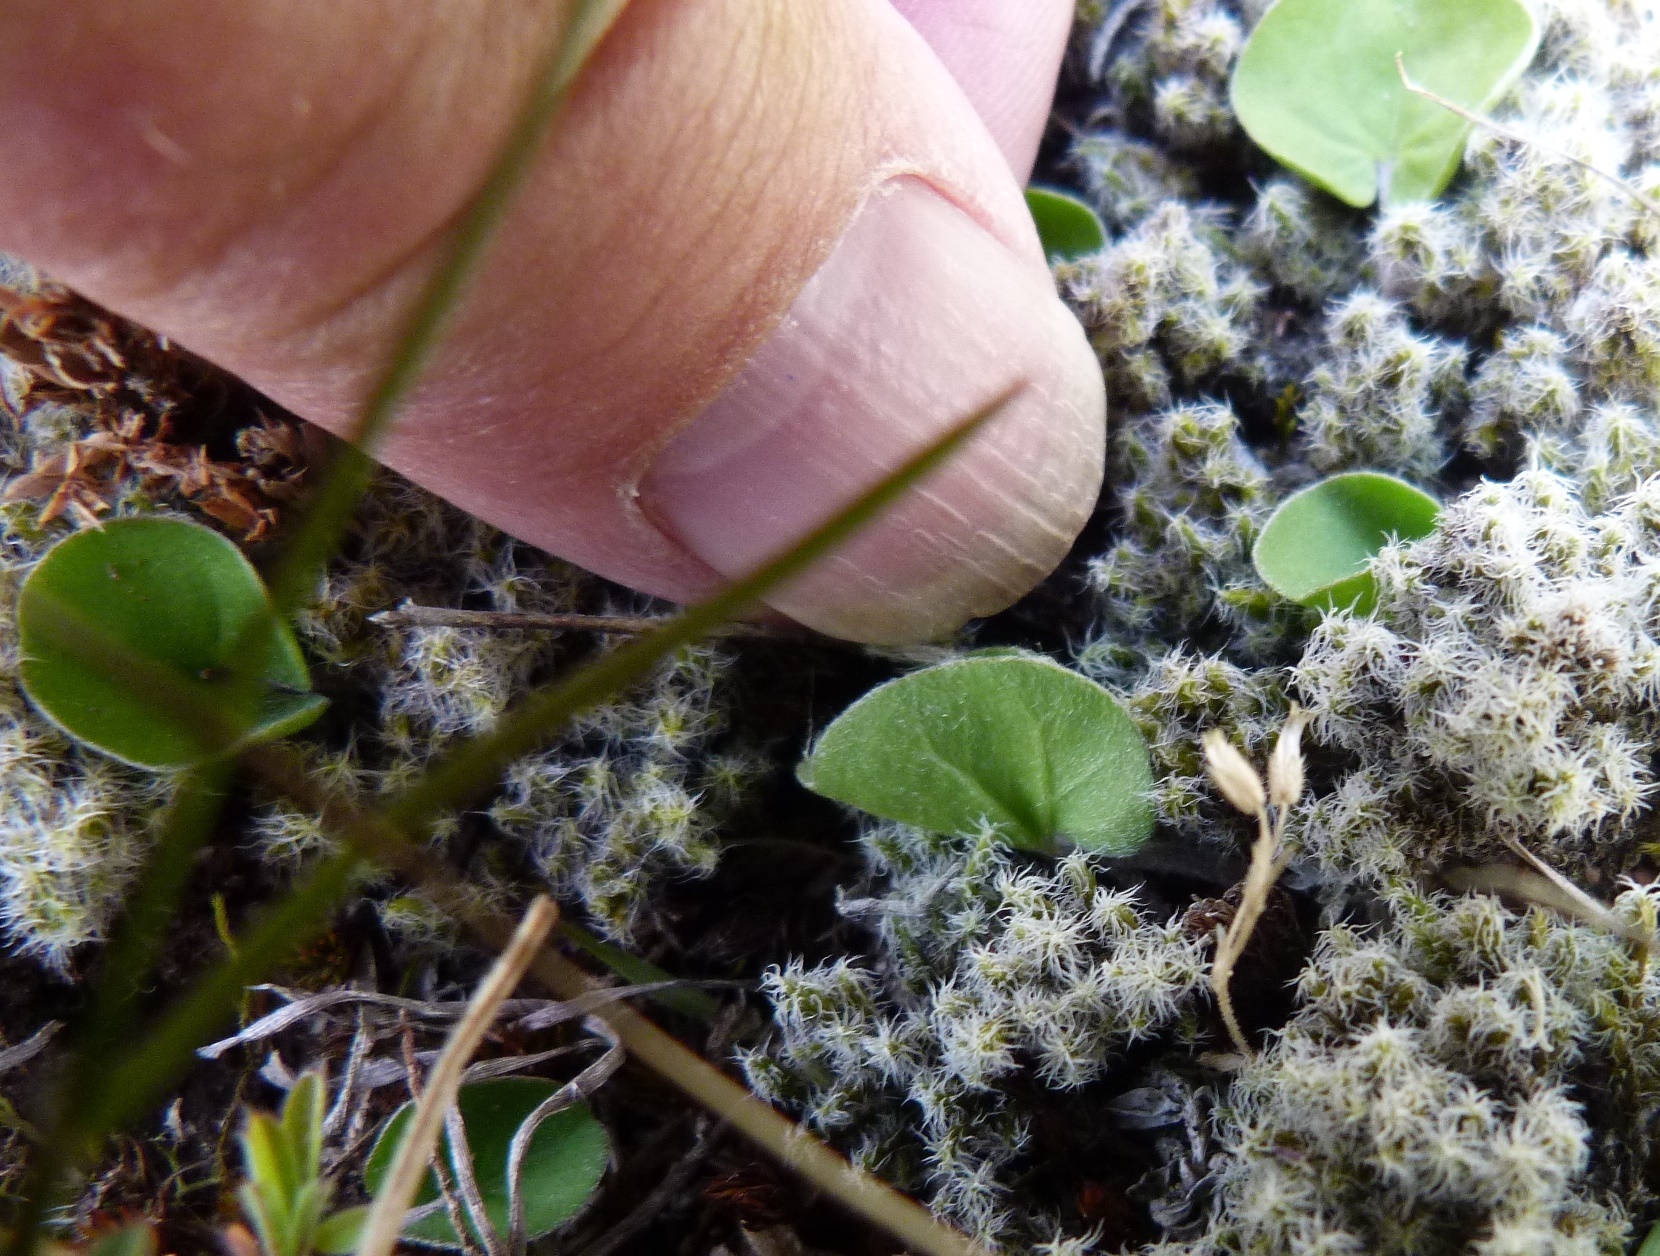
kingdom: Plantae
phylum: Tracheophyta
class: Magnoliopsida
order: Solanales
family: Convolvulaceae
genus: Dichondra
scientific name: Dichondra repens
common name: Kidneyweed
